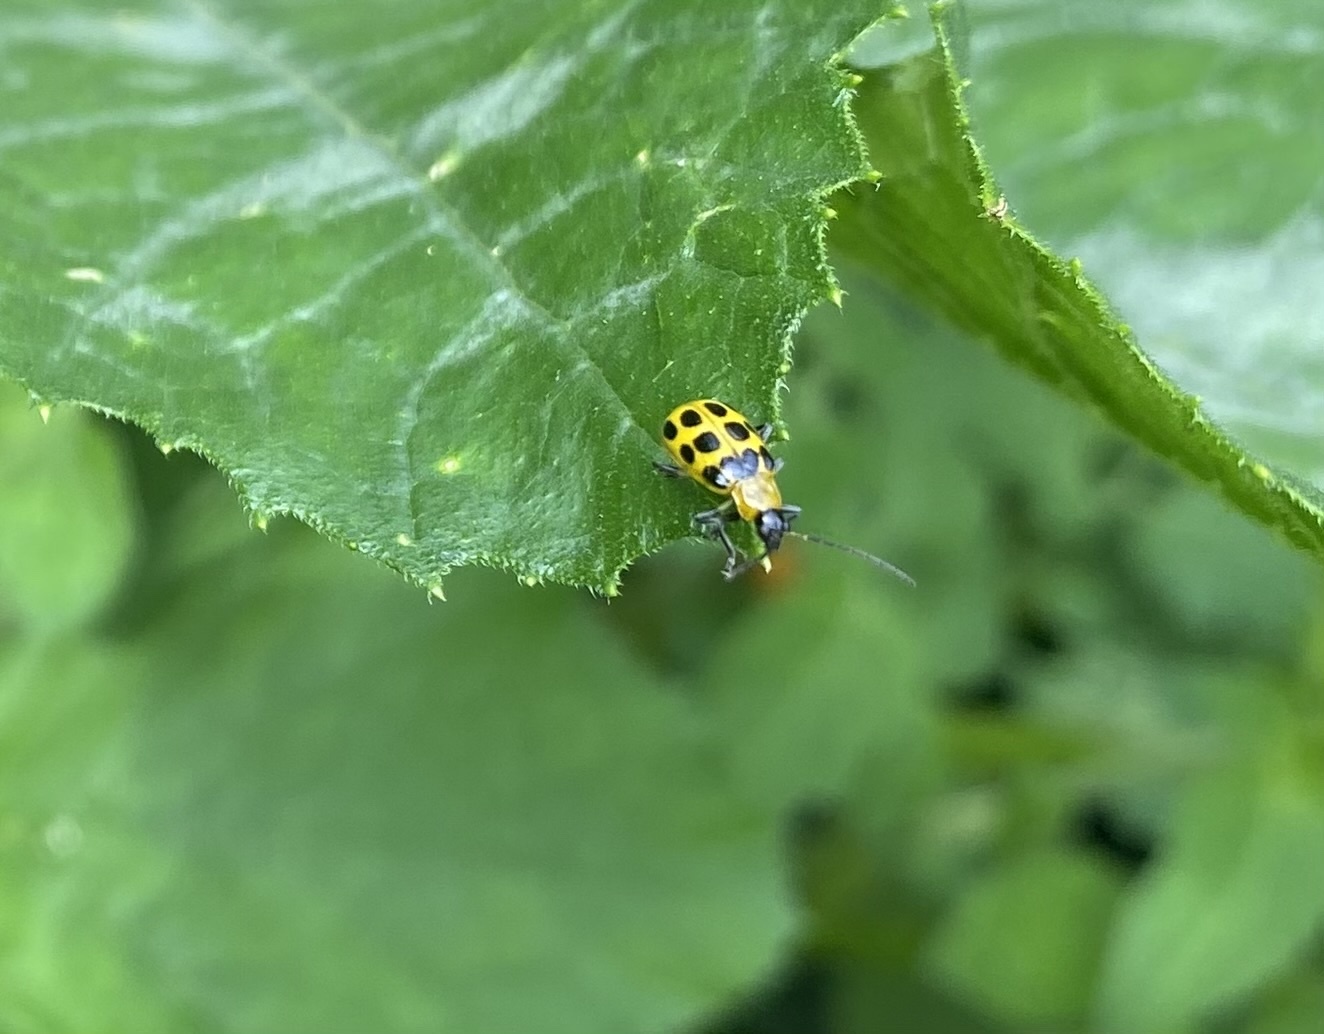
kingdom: Animalia
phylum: Arthropoda
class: Insecta
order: Coleoptera
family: Chrysomelidae
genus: Diabrotica
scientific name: Diabrotica undecimpunctata
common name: Spotted cucumber beetle
